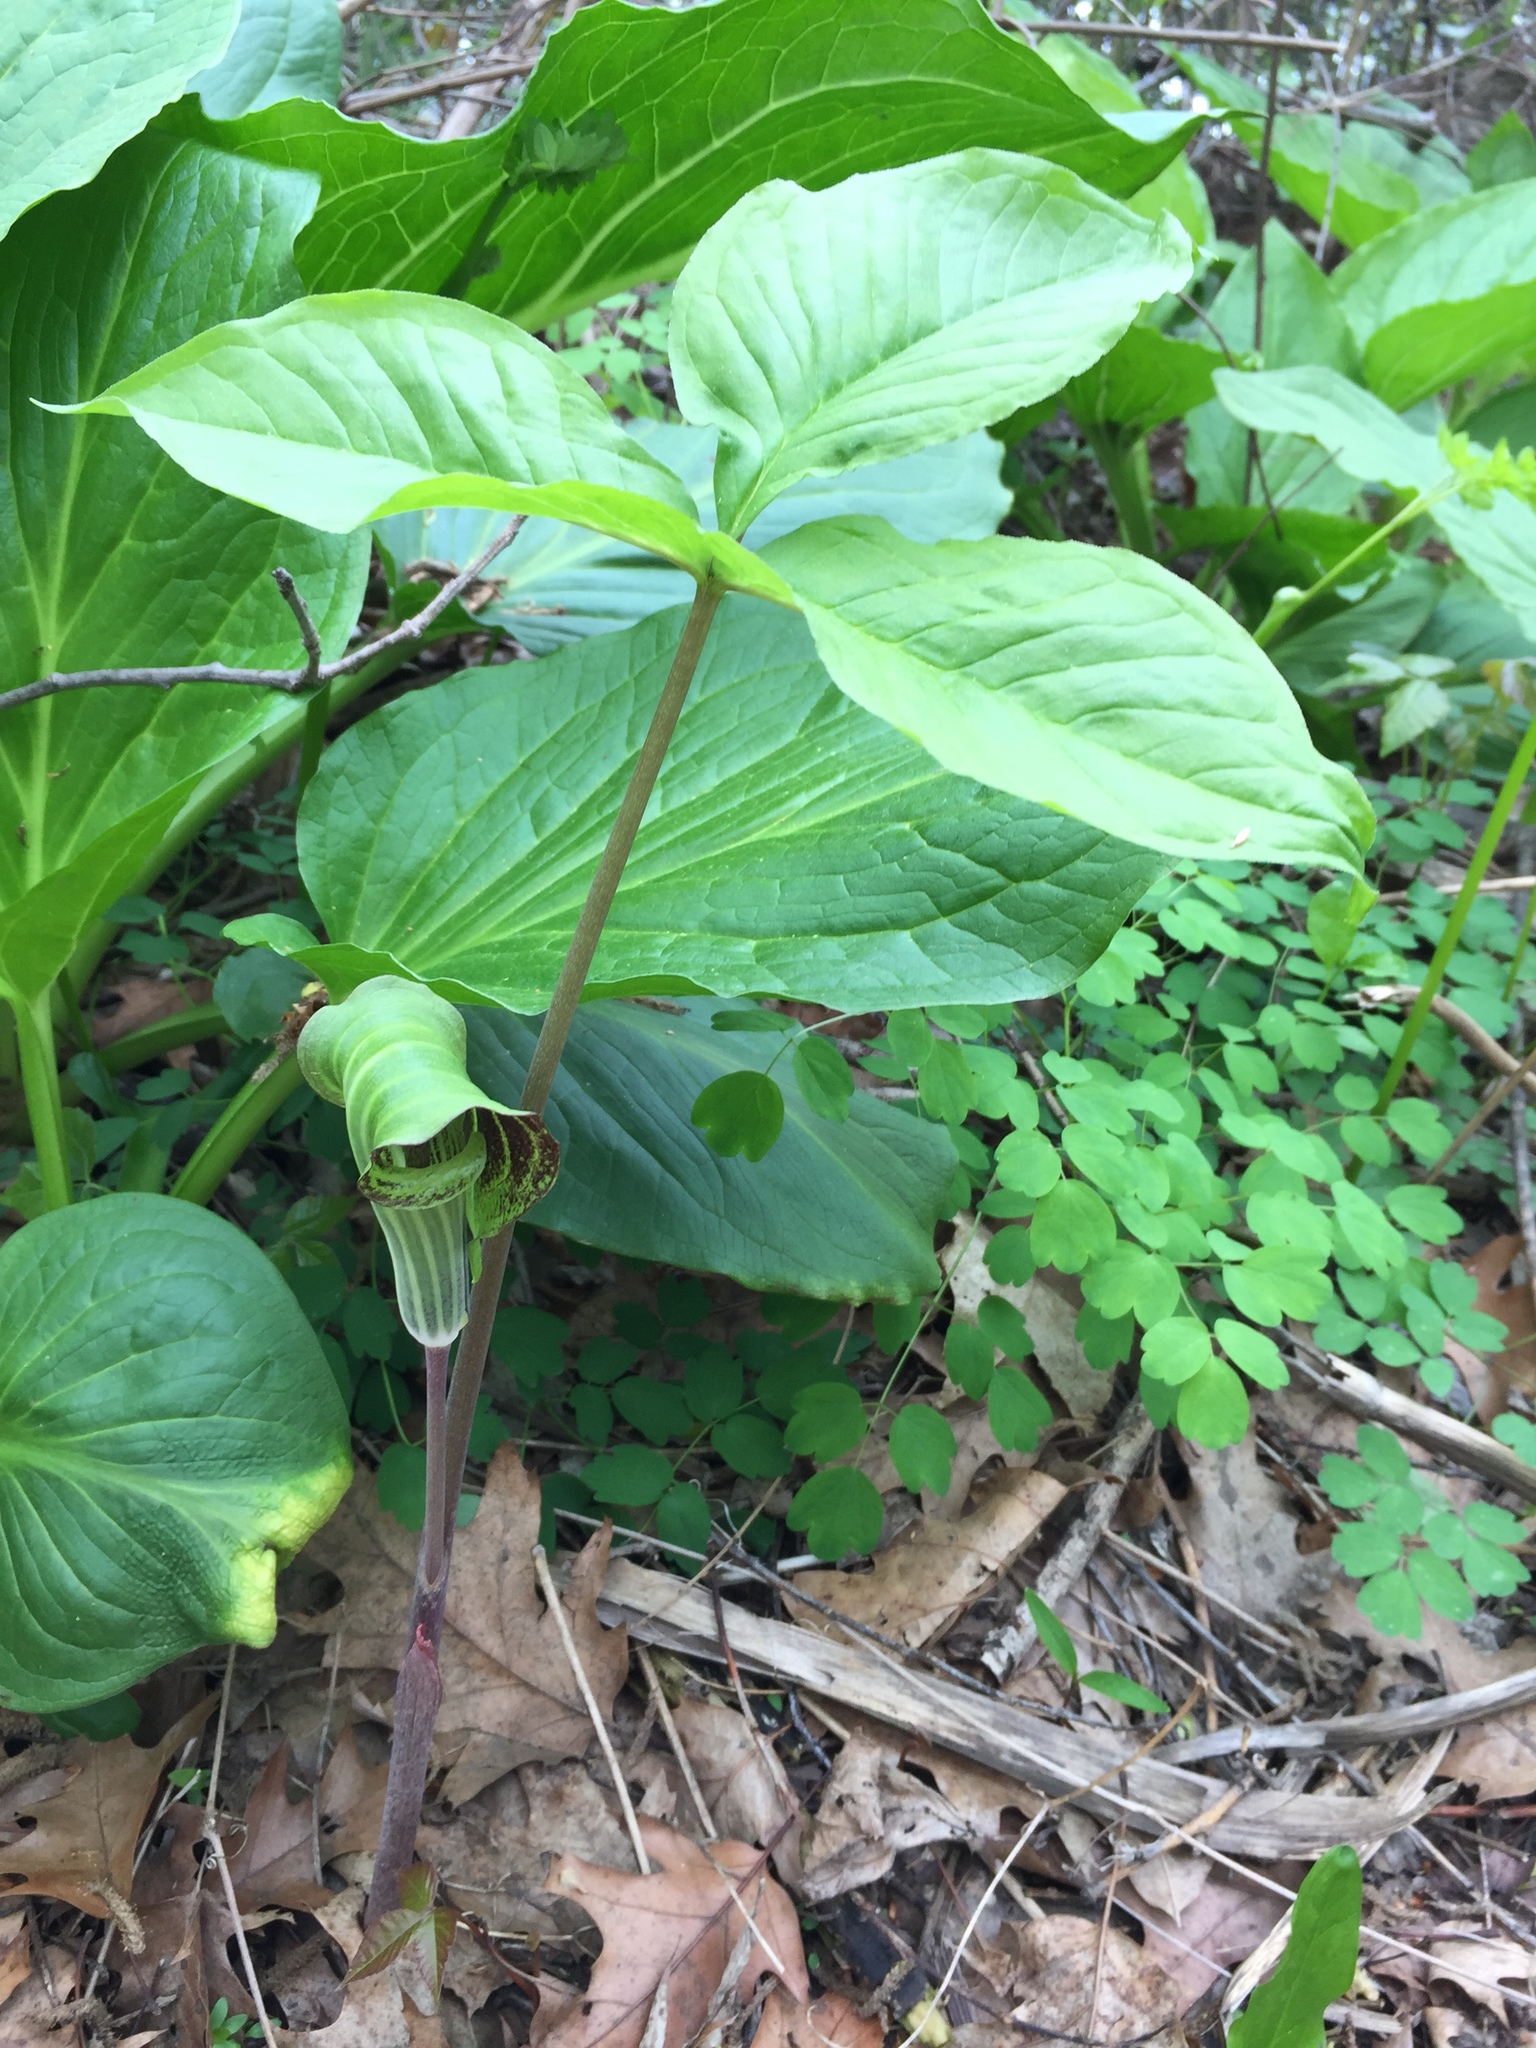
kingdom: Plantae
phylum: Tracheophyta
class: Liliopsida
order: Alismatales
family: Araceae
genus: Arisaema
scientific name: Arisaema triphyllum
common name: Jack-in-the-pulpit
